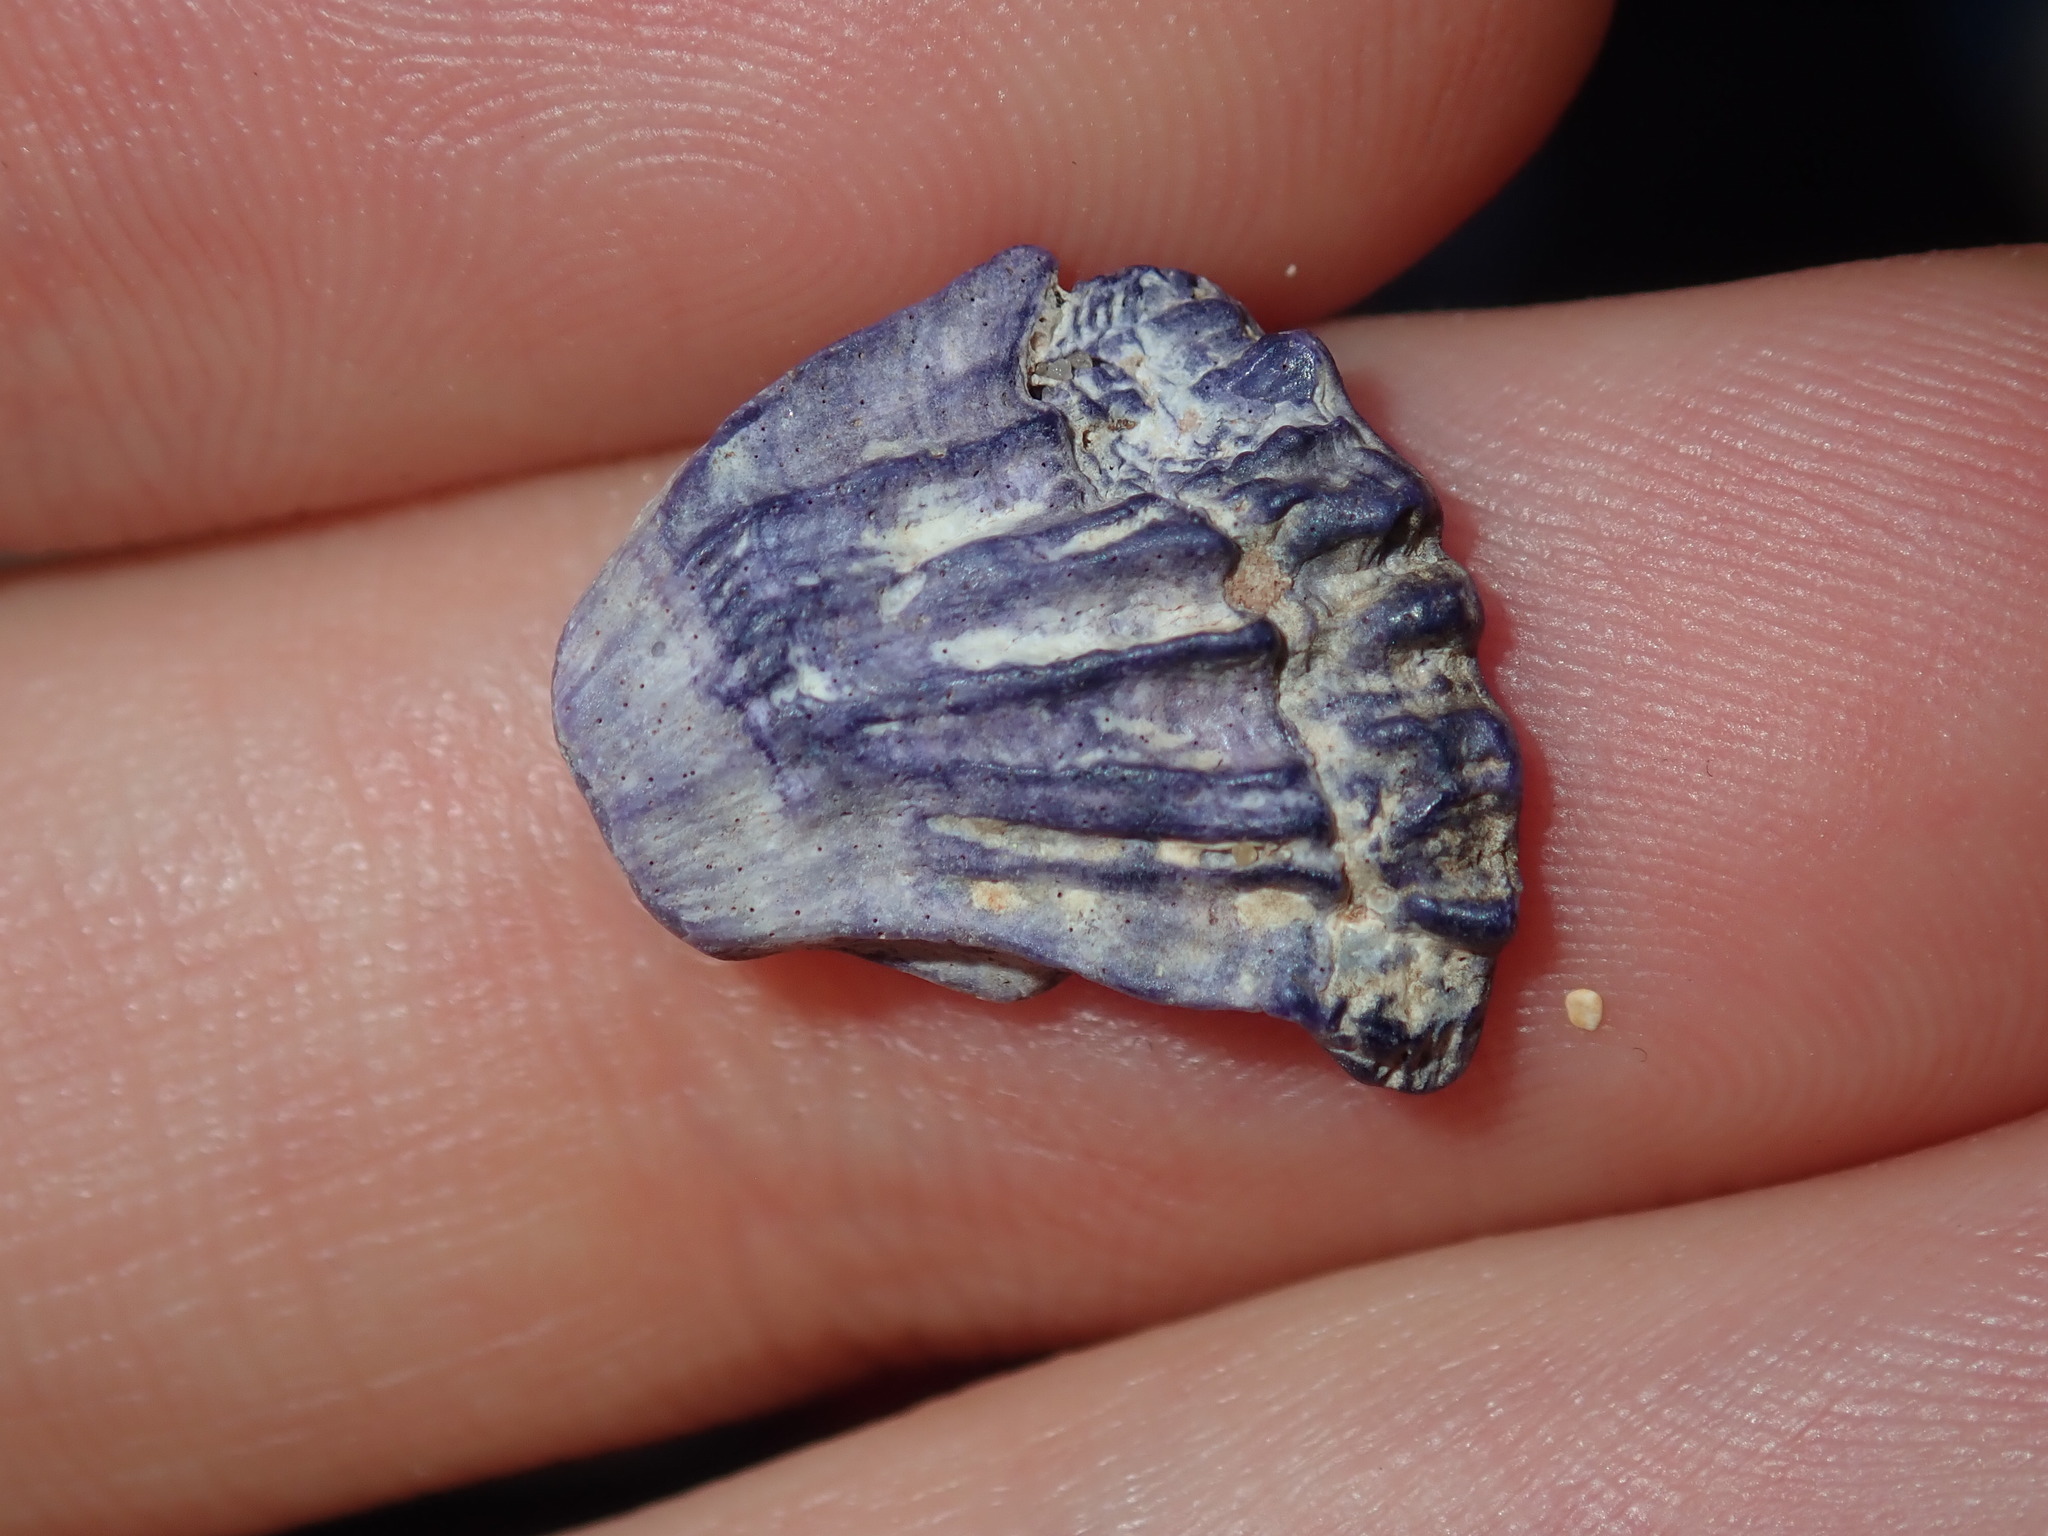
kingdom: Animalia
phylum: Arthropoda
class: Maxillopoda
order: Sessilia
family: Austrobalanidae
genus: Austrobalanus
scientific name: Austrobalanus imperator
